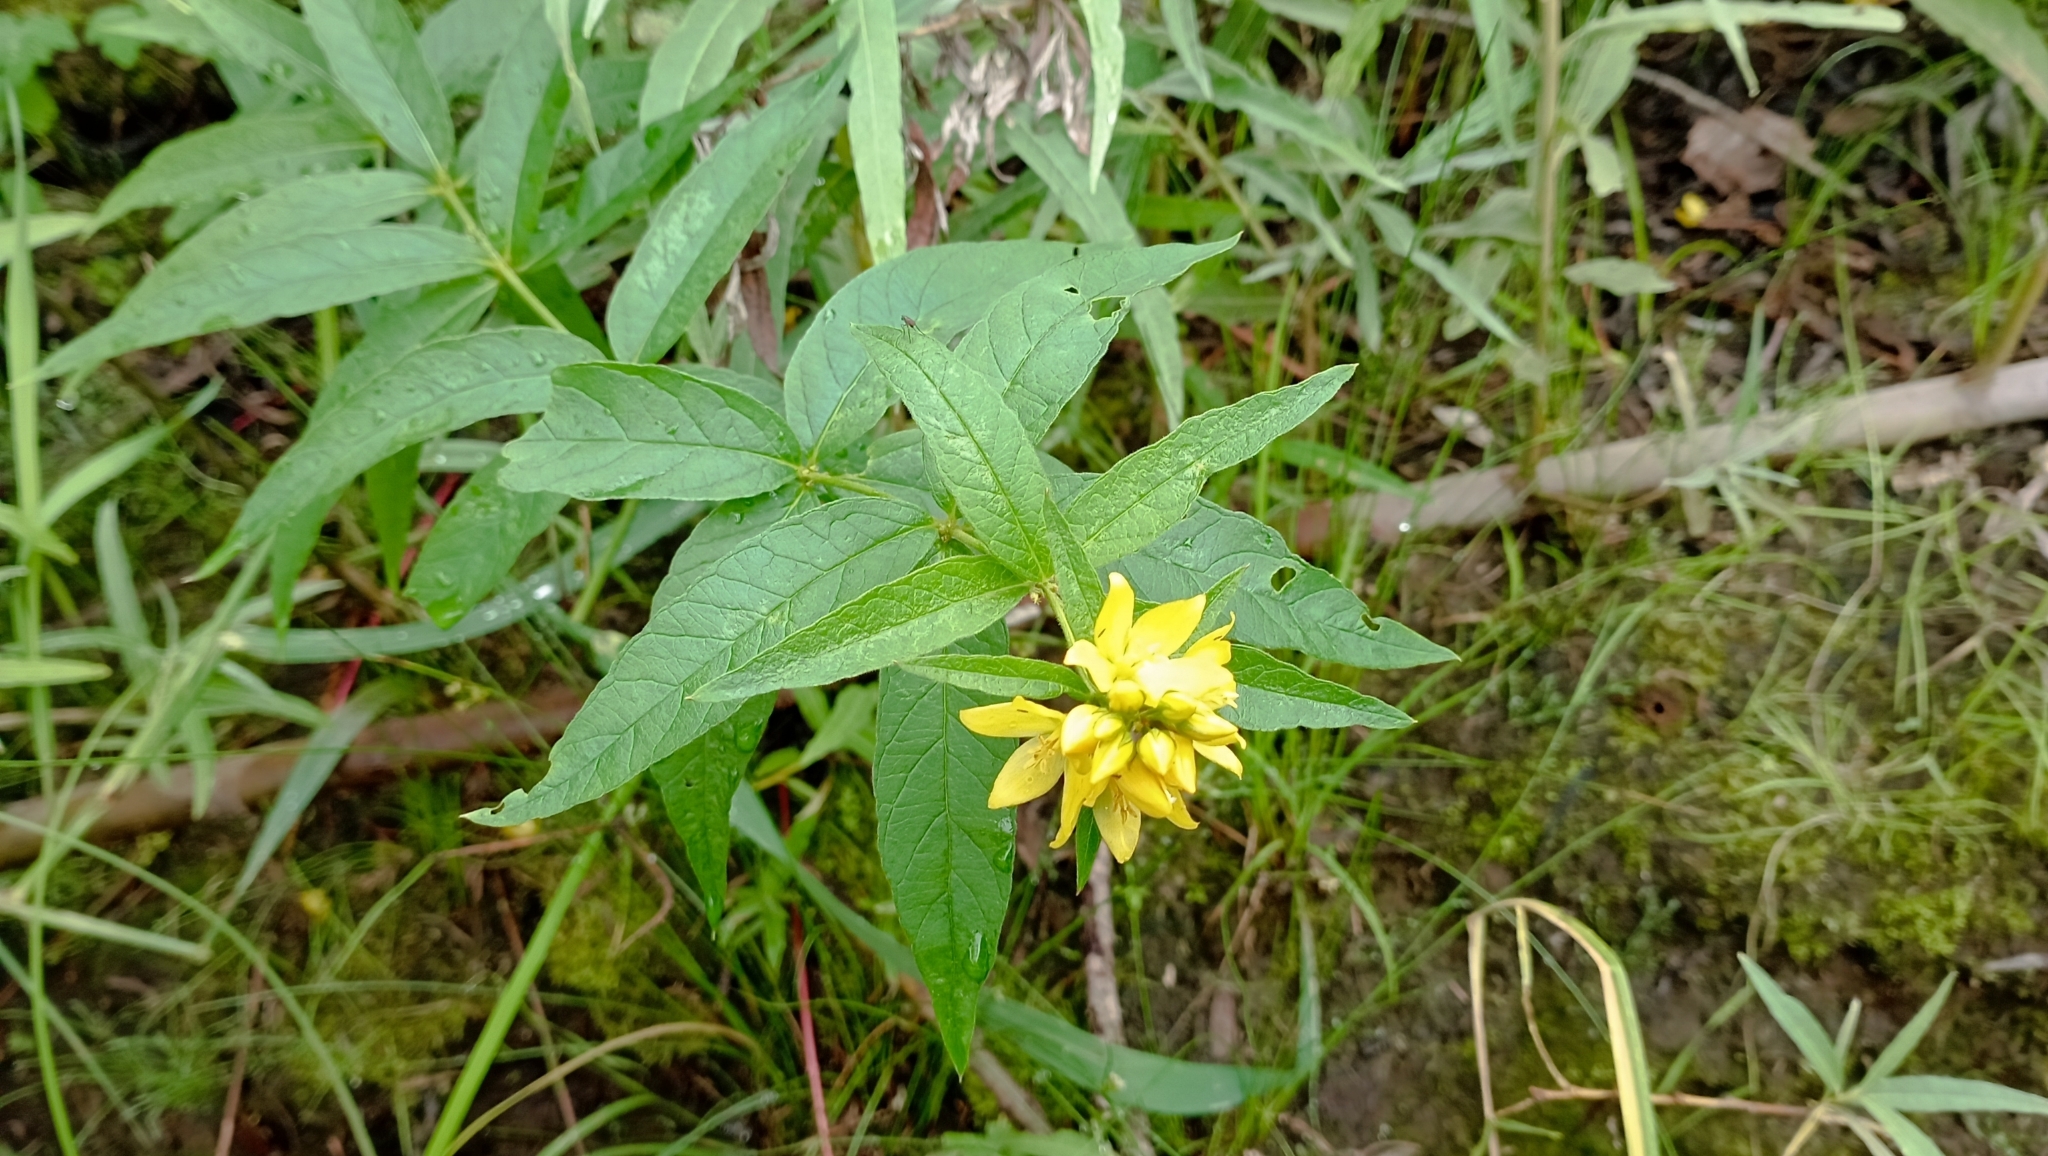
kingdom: Plantae
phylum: Tracheophyta
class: Magnoliopsida
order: Ericales
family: Primulaceae
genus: Lysimachia
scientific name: Lysimachia vulgaris
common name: Yellow loosestrife
